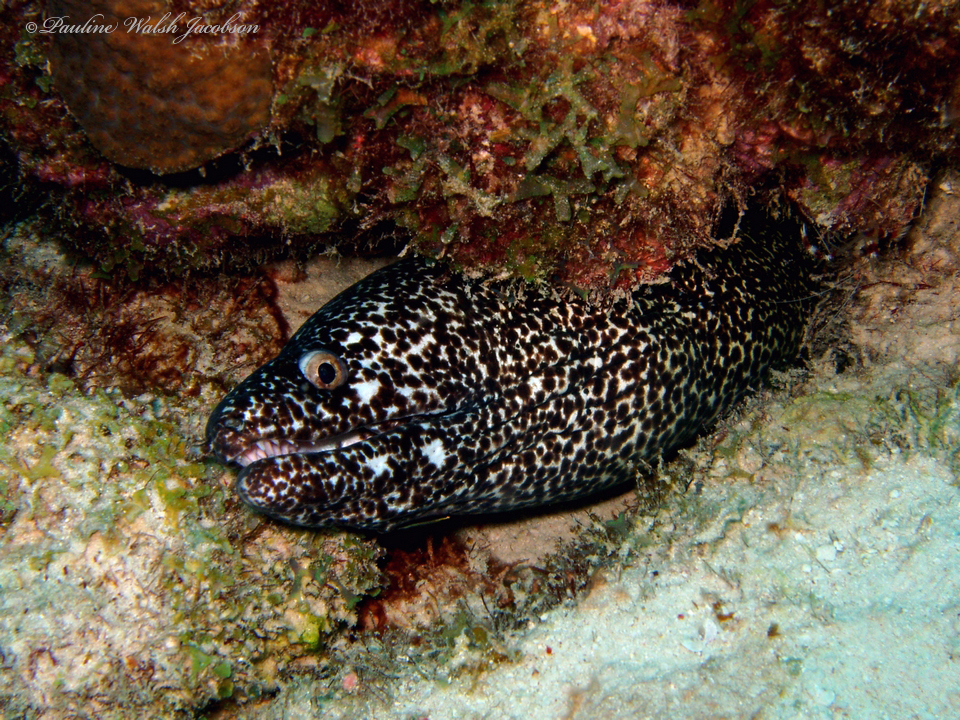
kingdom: Animalia
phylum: Chordata
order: Anguilliformes
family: Muraenidae
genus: Gymnothorax
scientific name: Gymnothorax moringa
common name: Spotted moray
